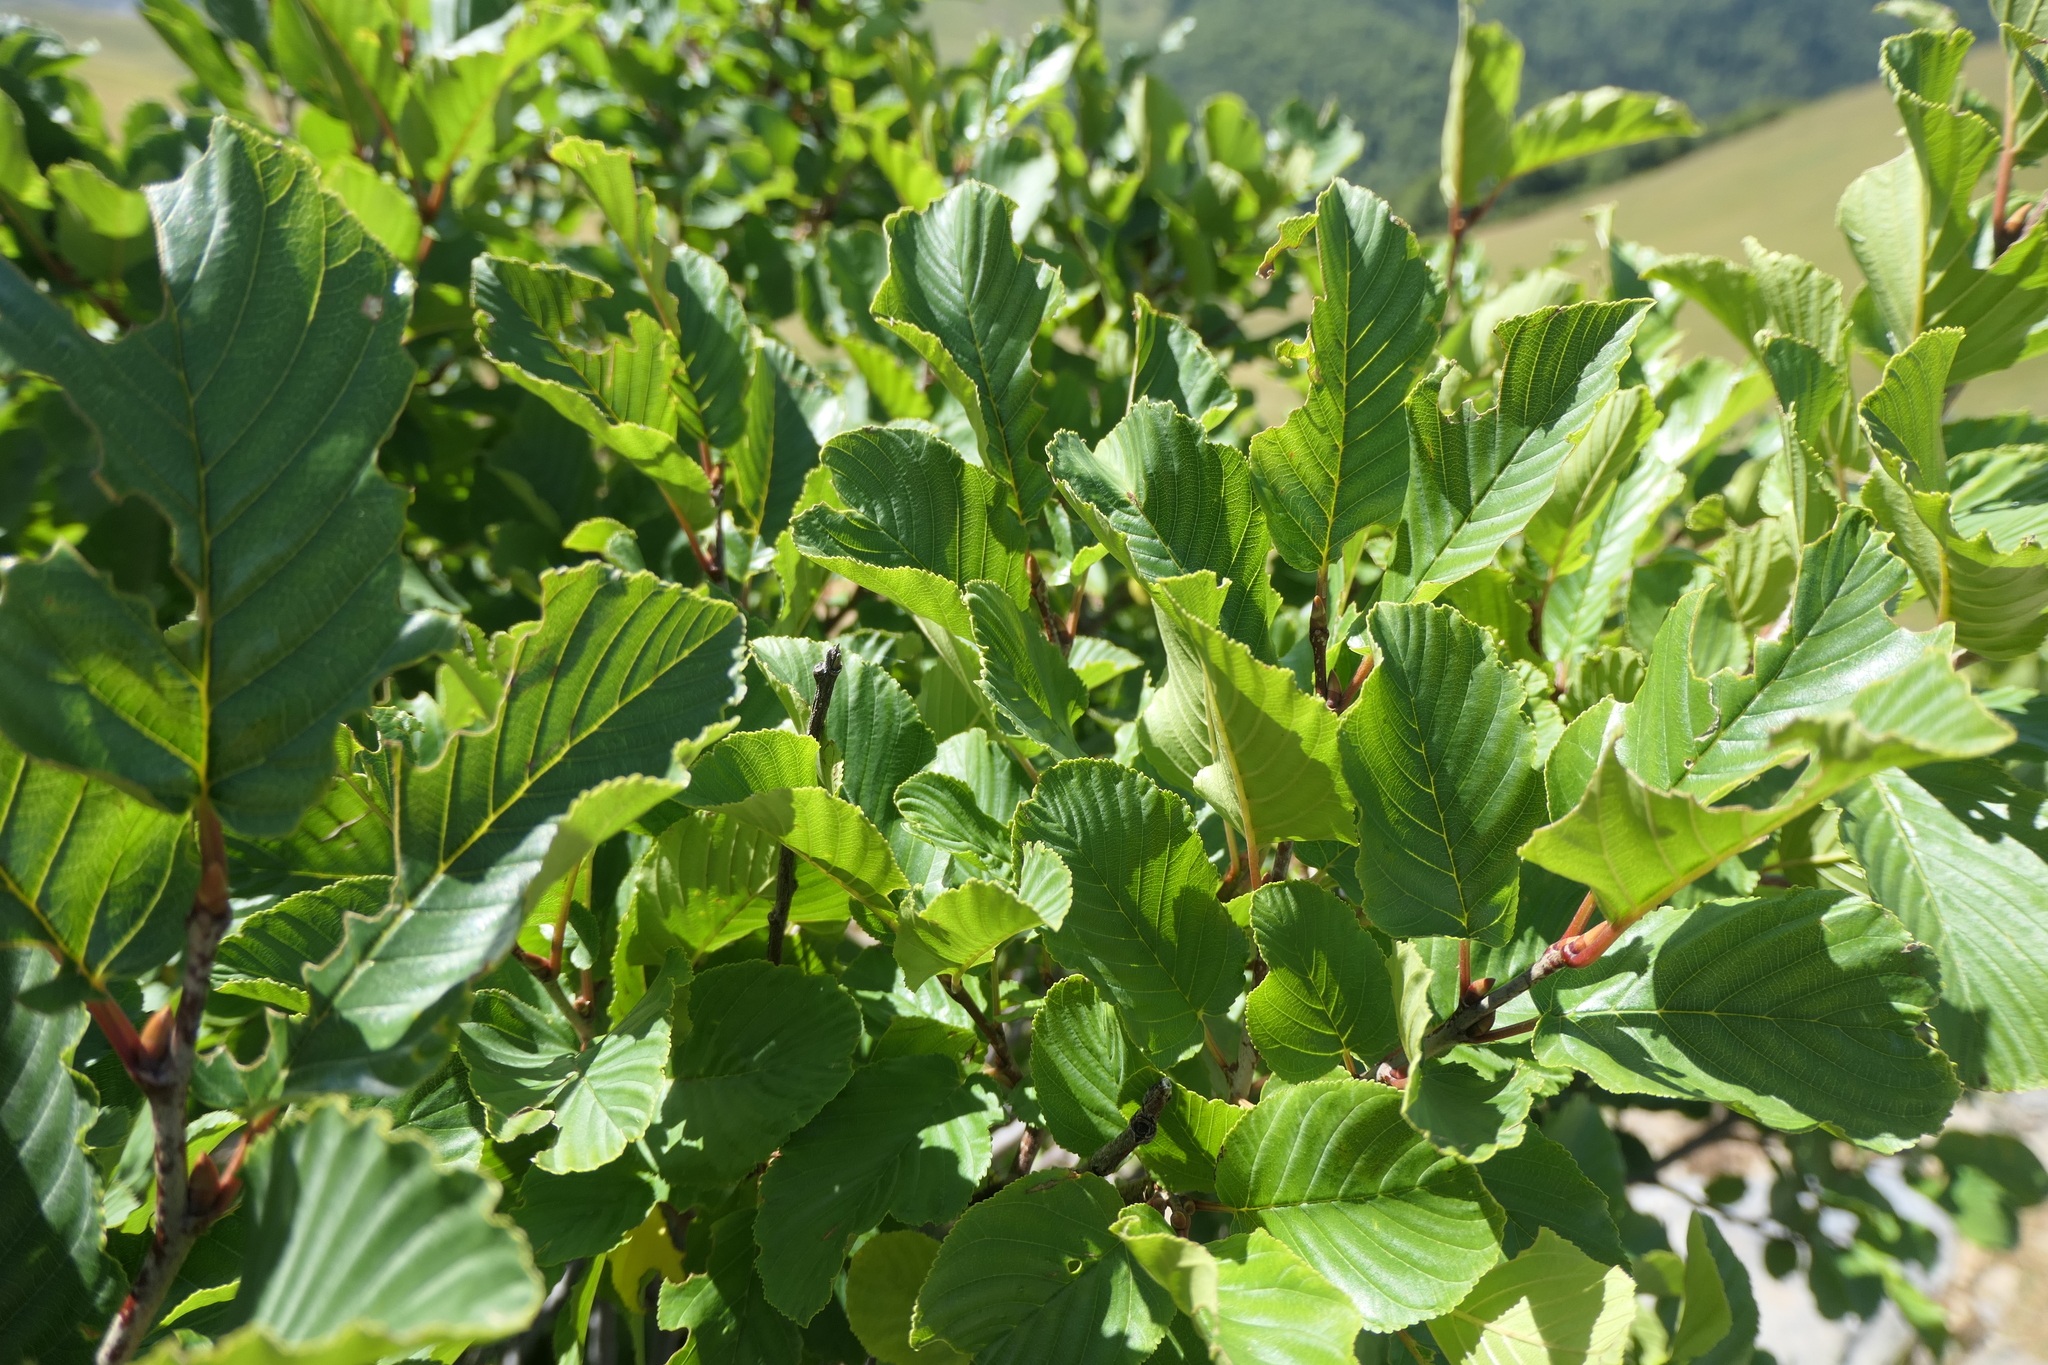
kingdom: Plantae
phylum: Tracheophyta
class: Magnoliopsida
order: Rosales
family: Rhamnaceae
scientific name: Rhamnaceae
